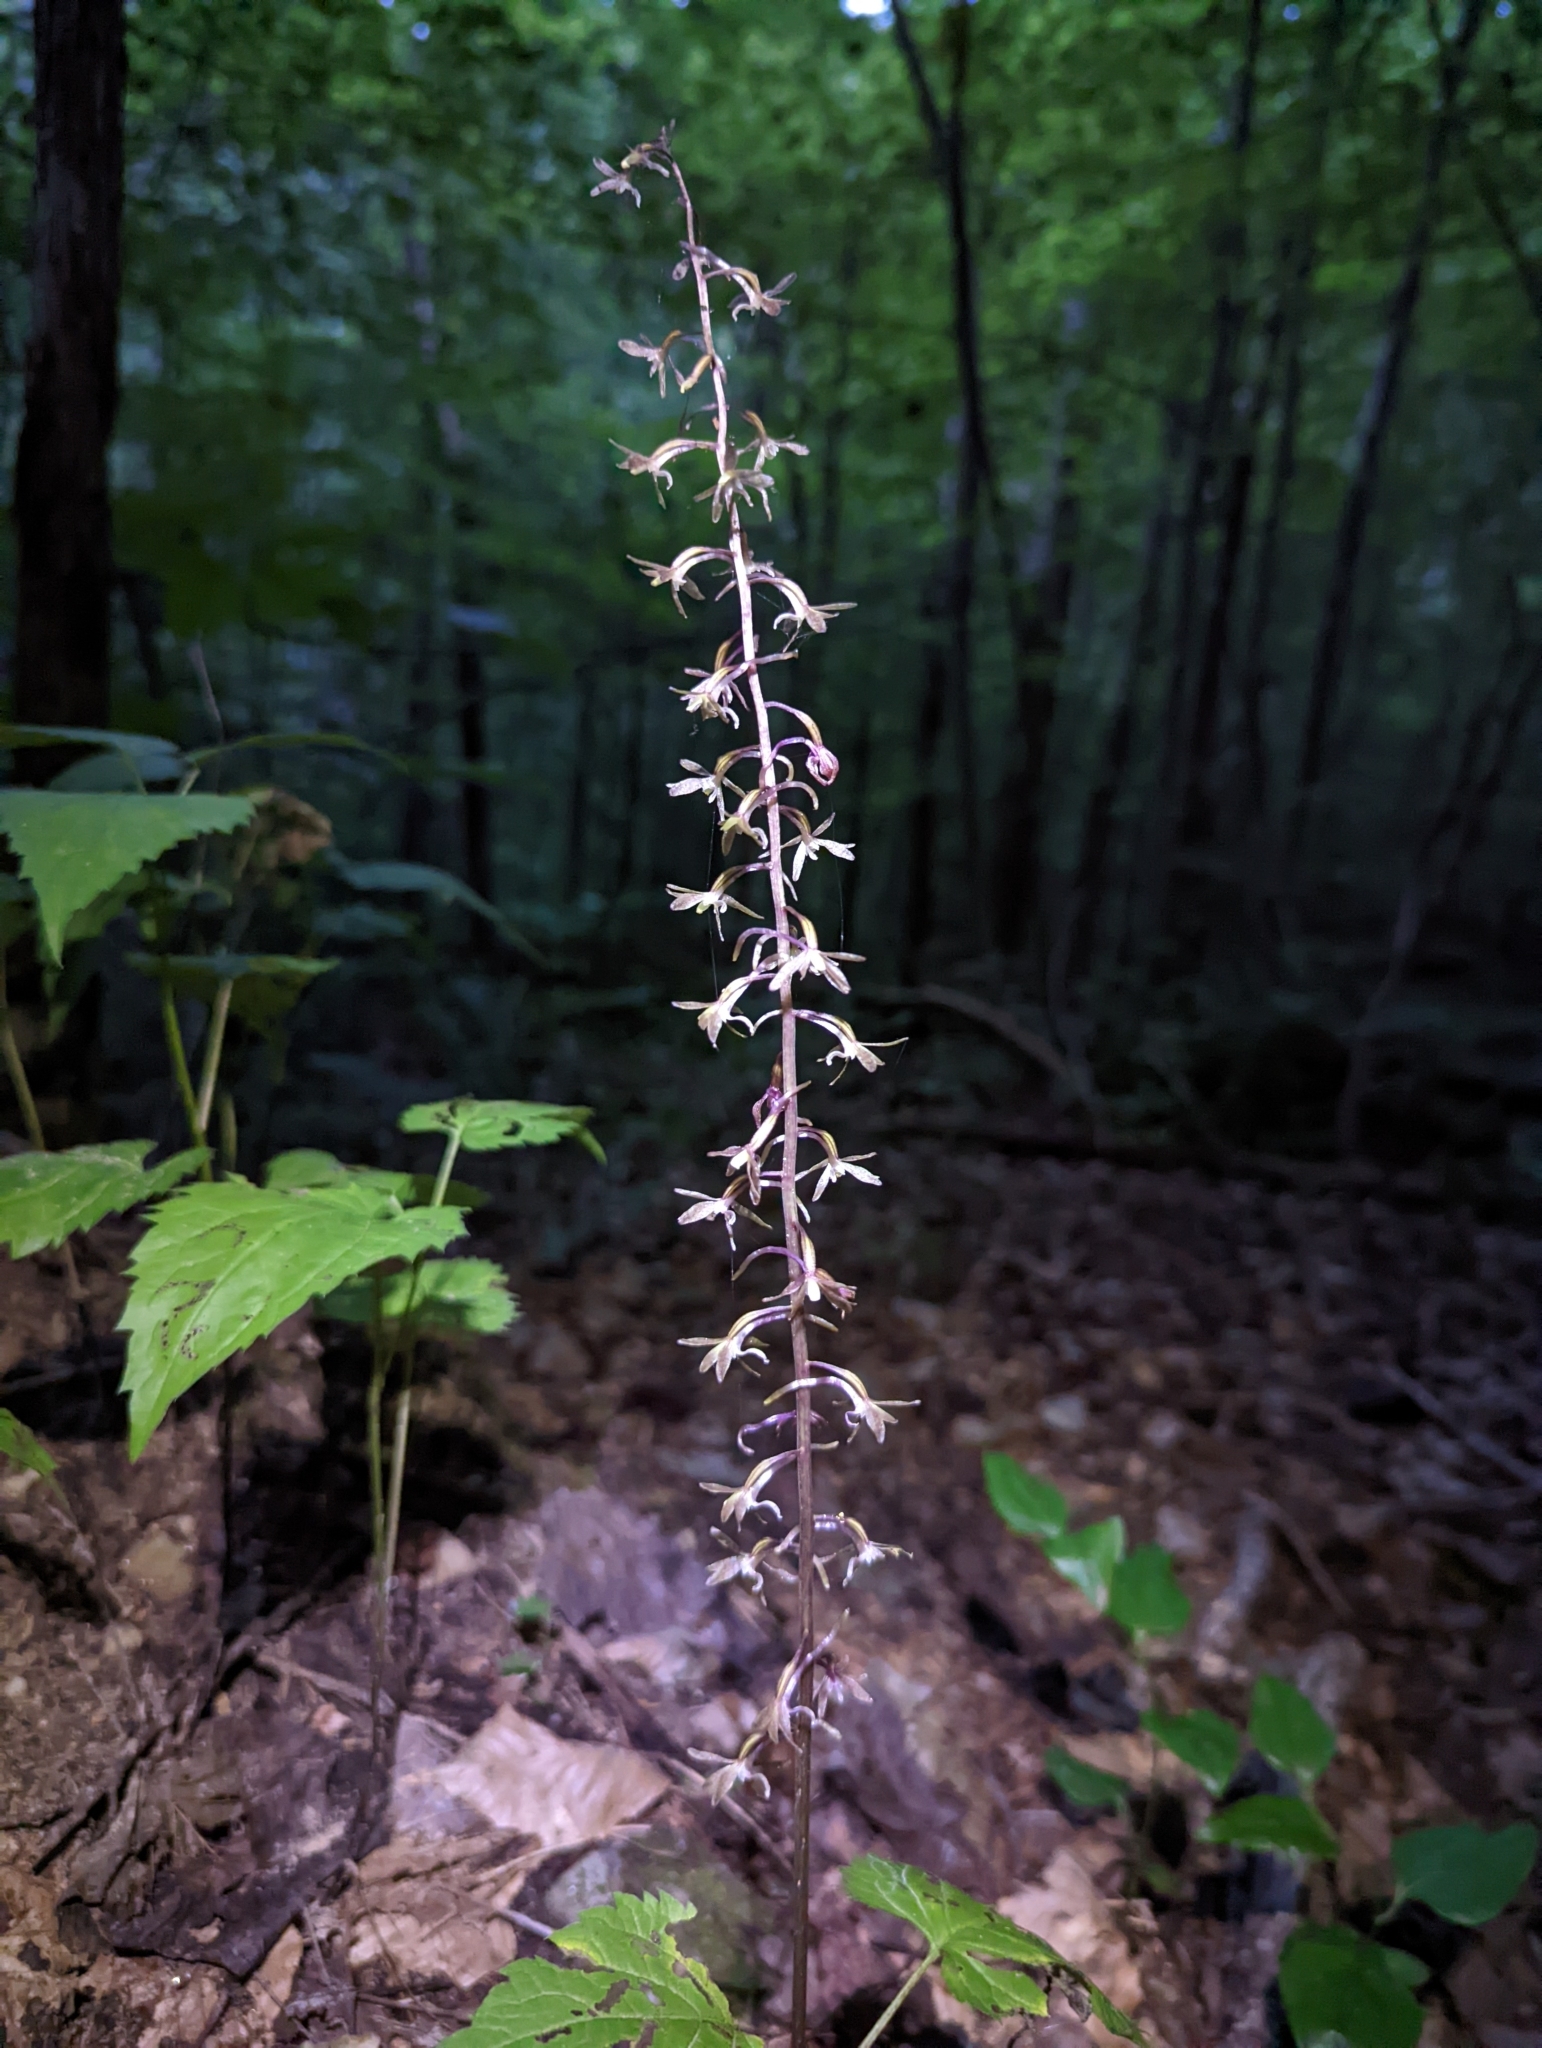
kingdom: Plantae
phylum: Tracheophyta
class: Liliopsida
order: Asparagales
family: Orchidaceae
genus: Tipularia
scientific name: Tipularia discolor
